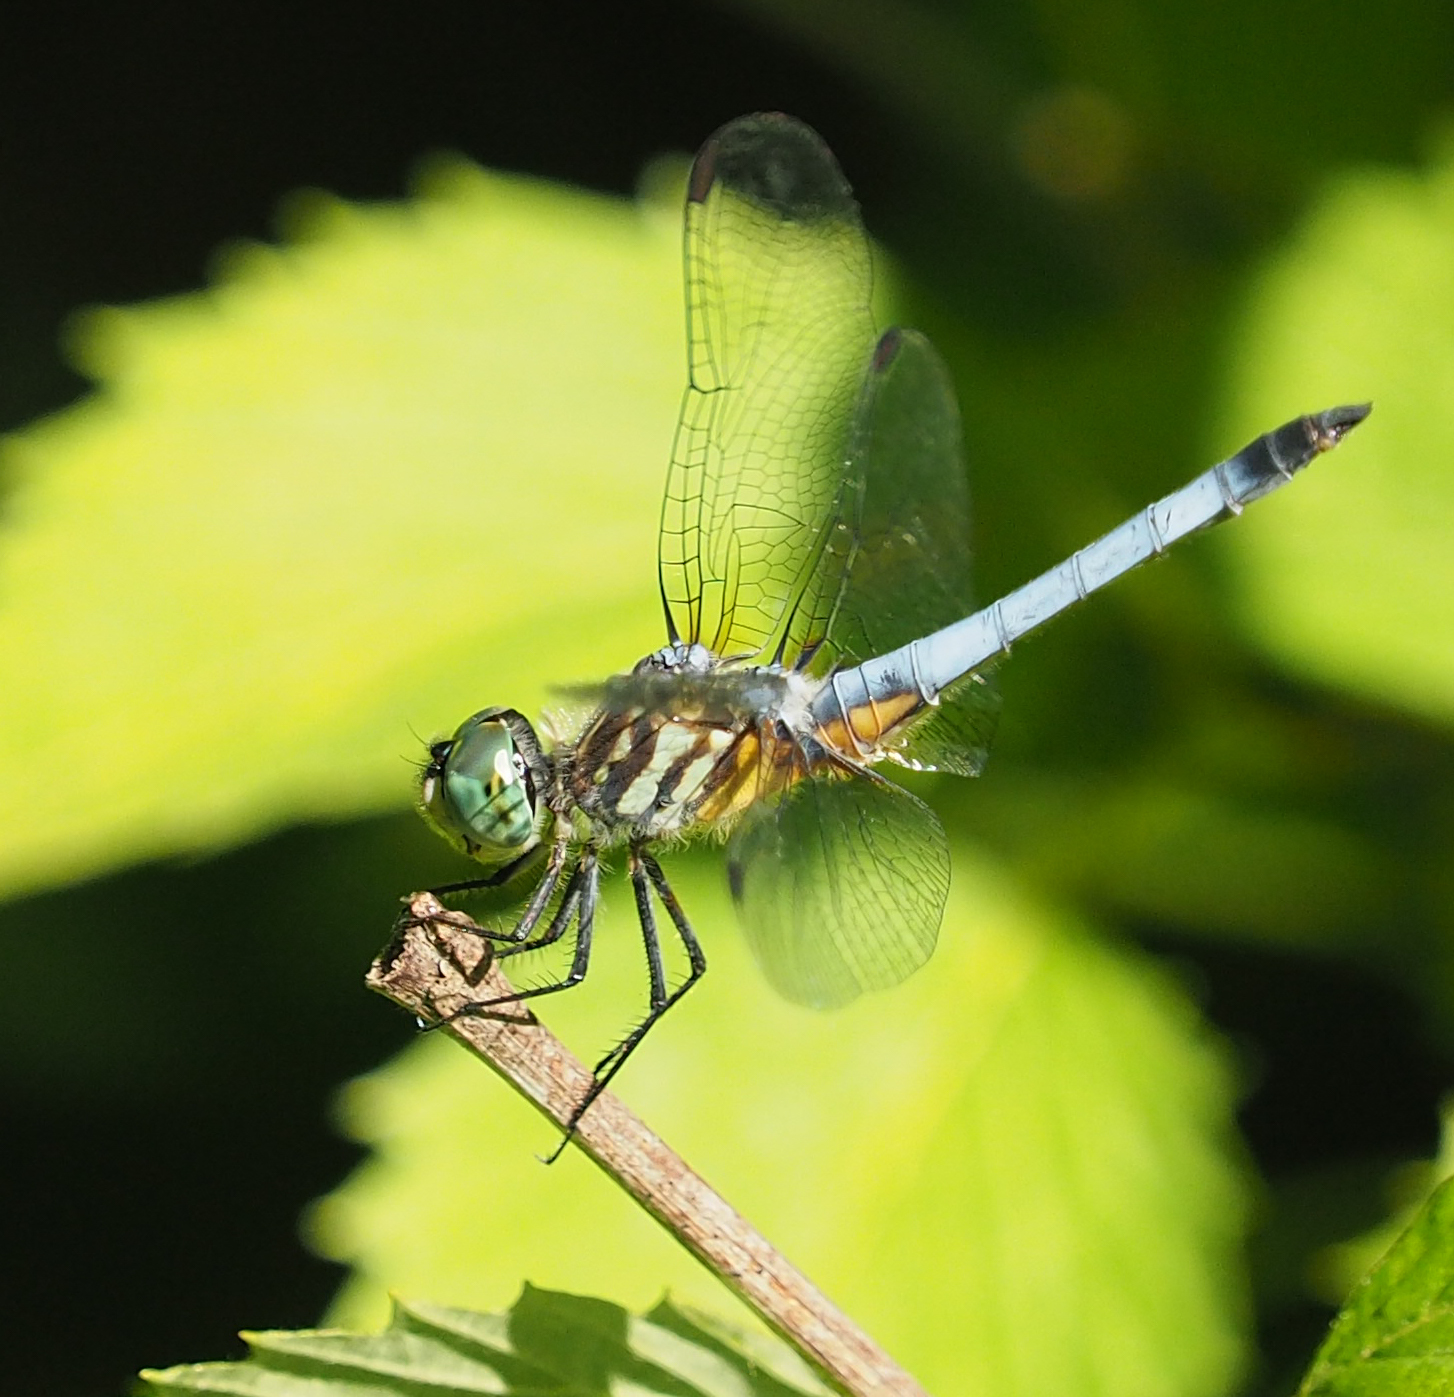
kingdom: Animalia
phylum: Arthropoda
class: Insecta
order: Odonata
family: Libellulidae
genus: Pachydiplax
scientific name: Pachydiplax longipennis
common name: Blue dasher
